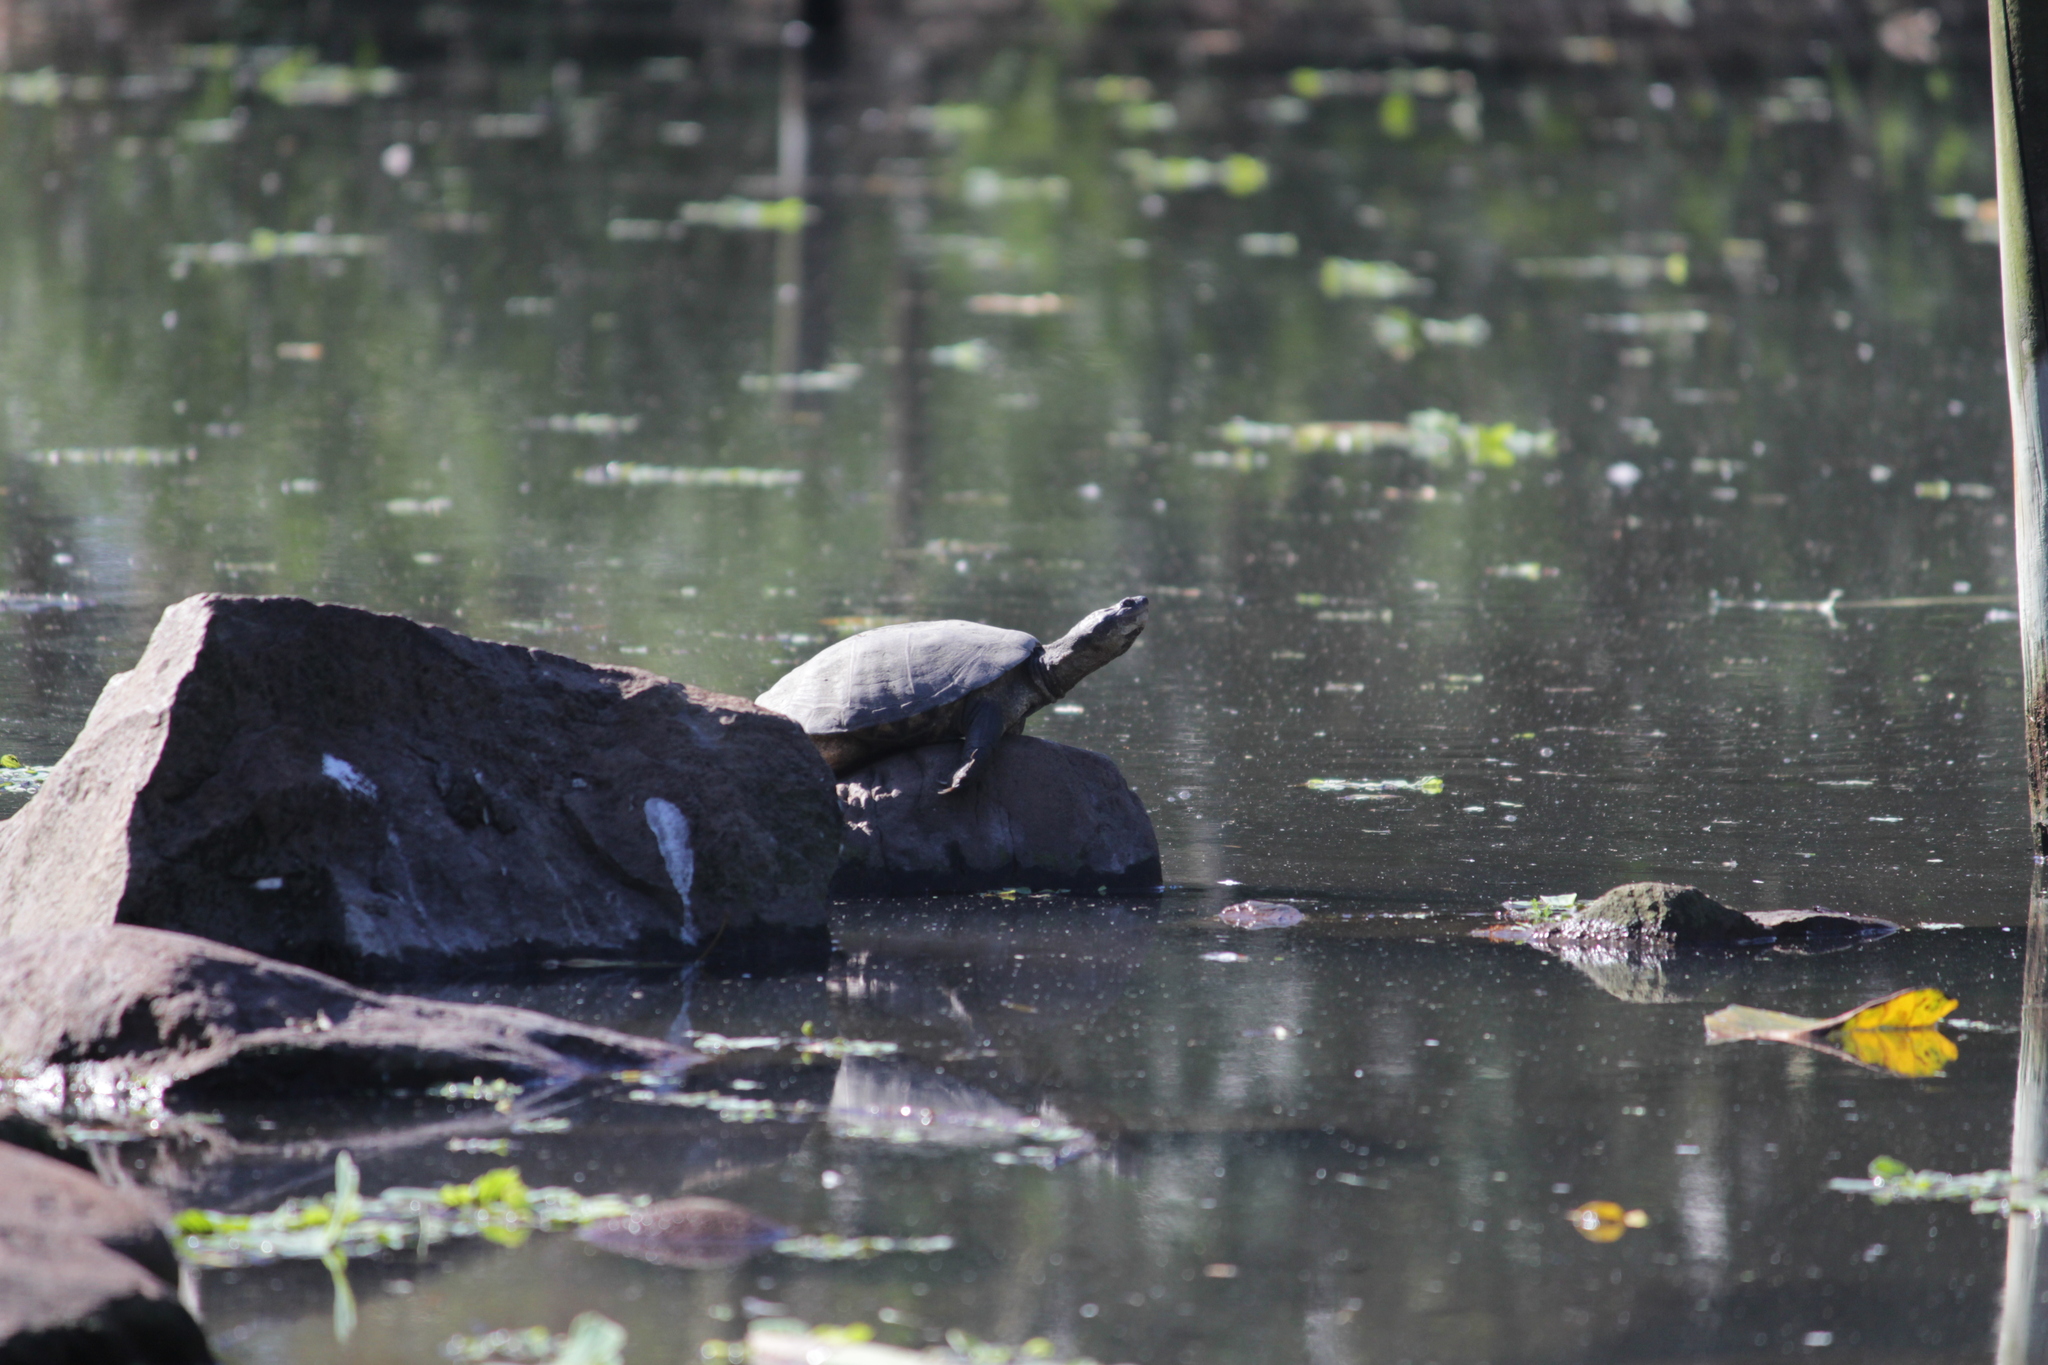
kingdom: Animalia
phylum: Chordata
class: Testudines
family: Pelomedusidae
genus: Pelomedusa
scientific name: Pelomedusa galeata
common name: South african helmeted terrapin
